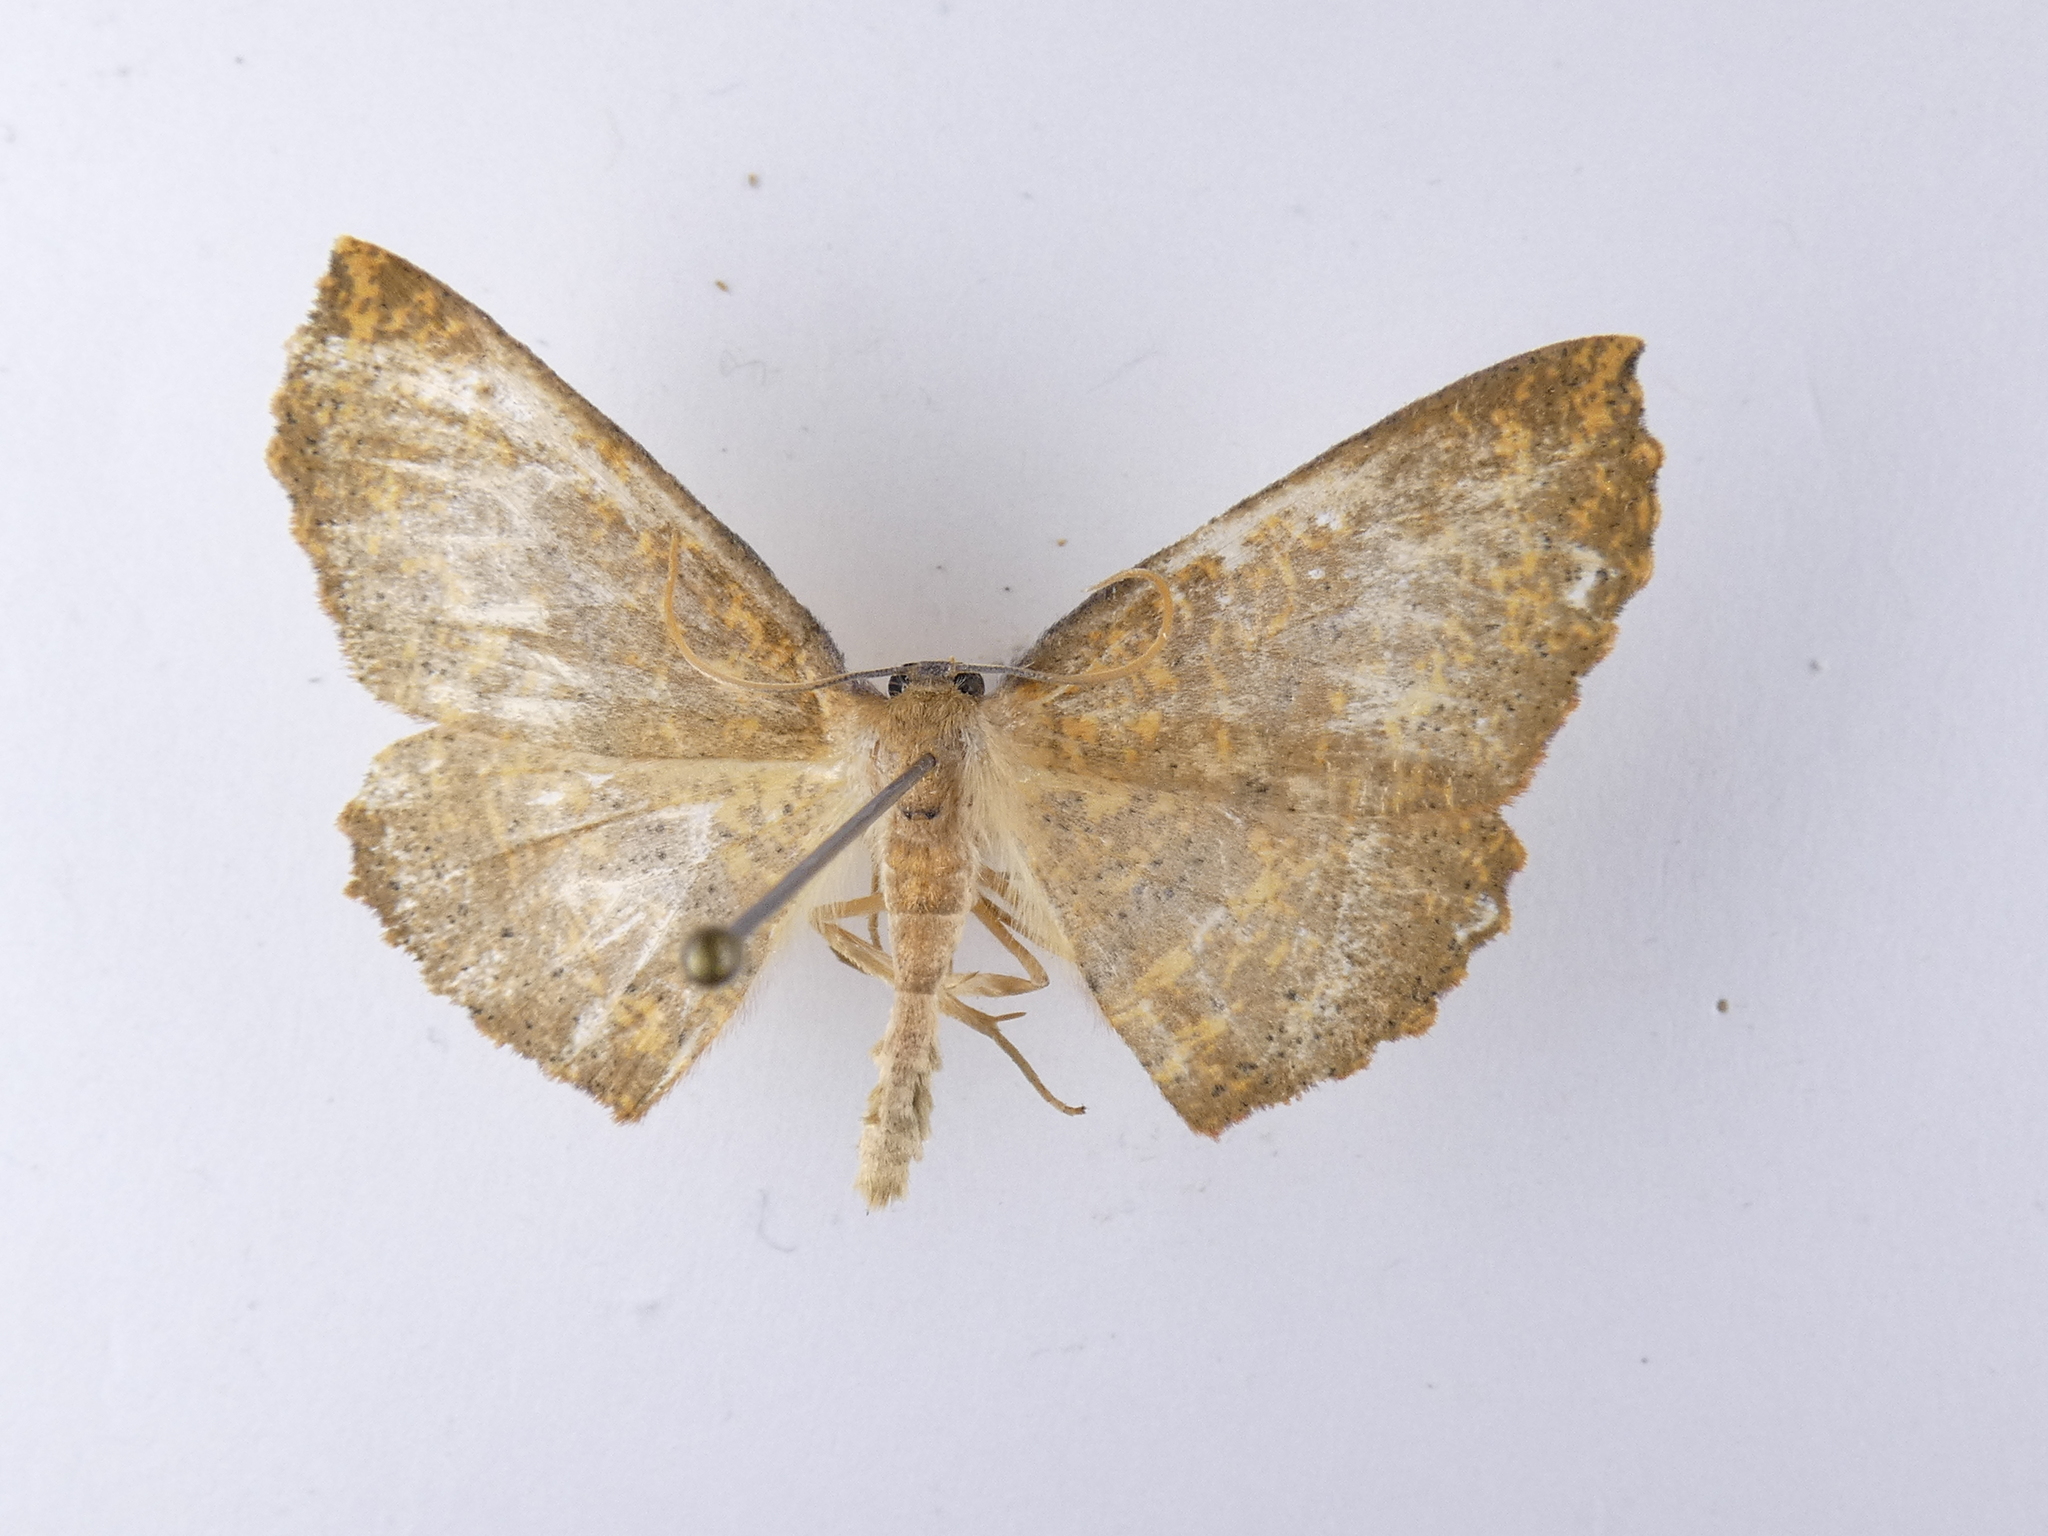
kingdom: Animalia
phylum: Arthropoda
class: Insecta
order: Lepidoptera
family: Geometridae
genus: Xyridacma
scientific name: Xyridacma ustaria
